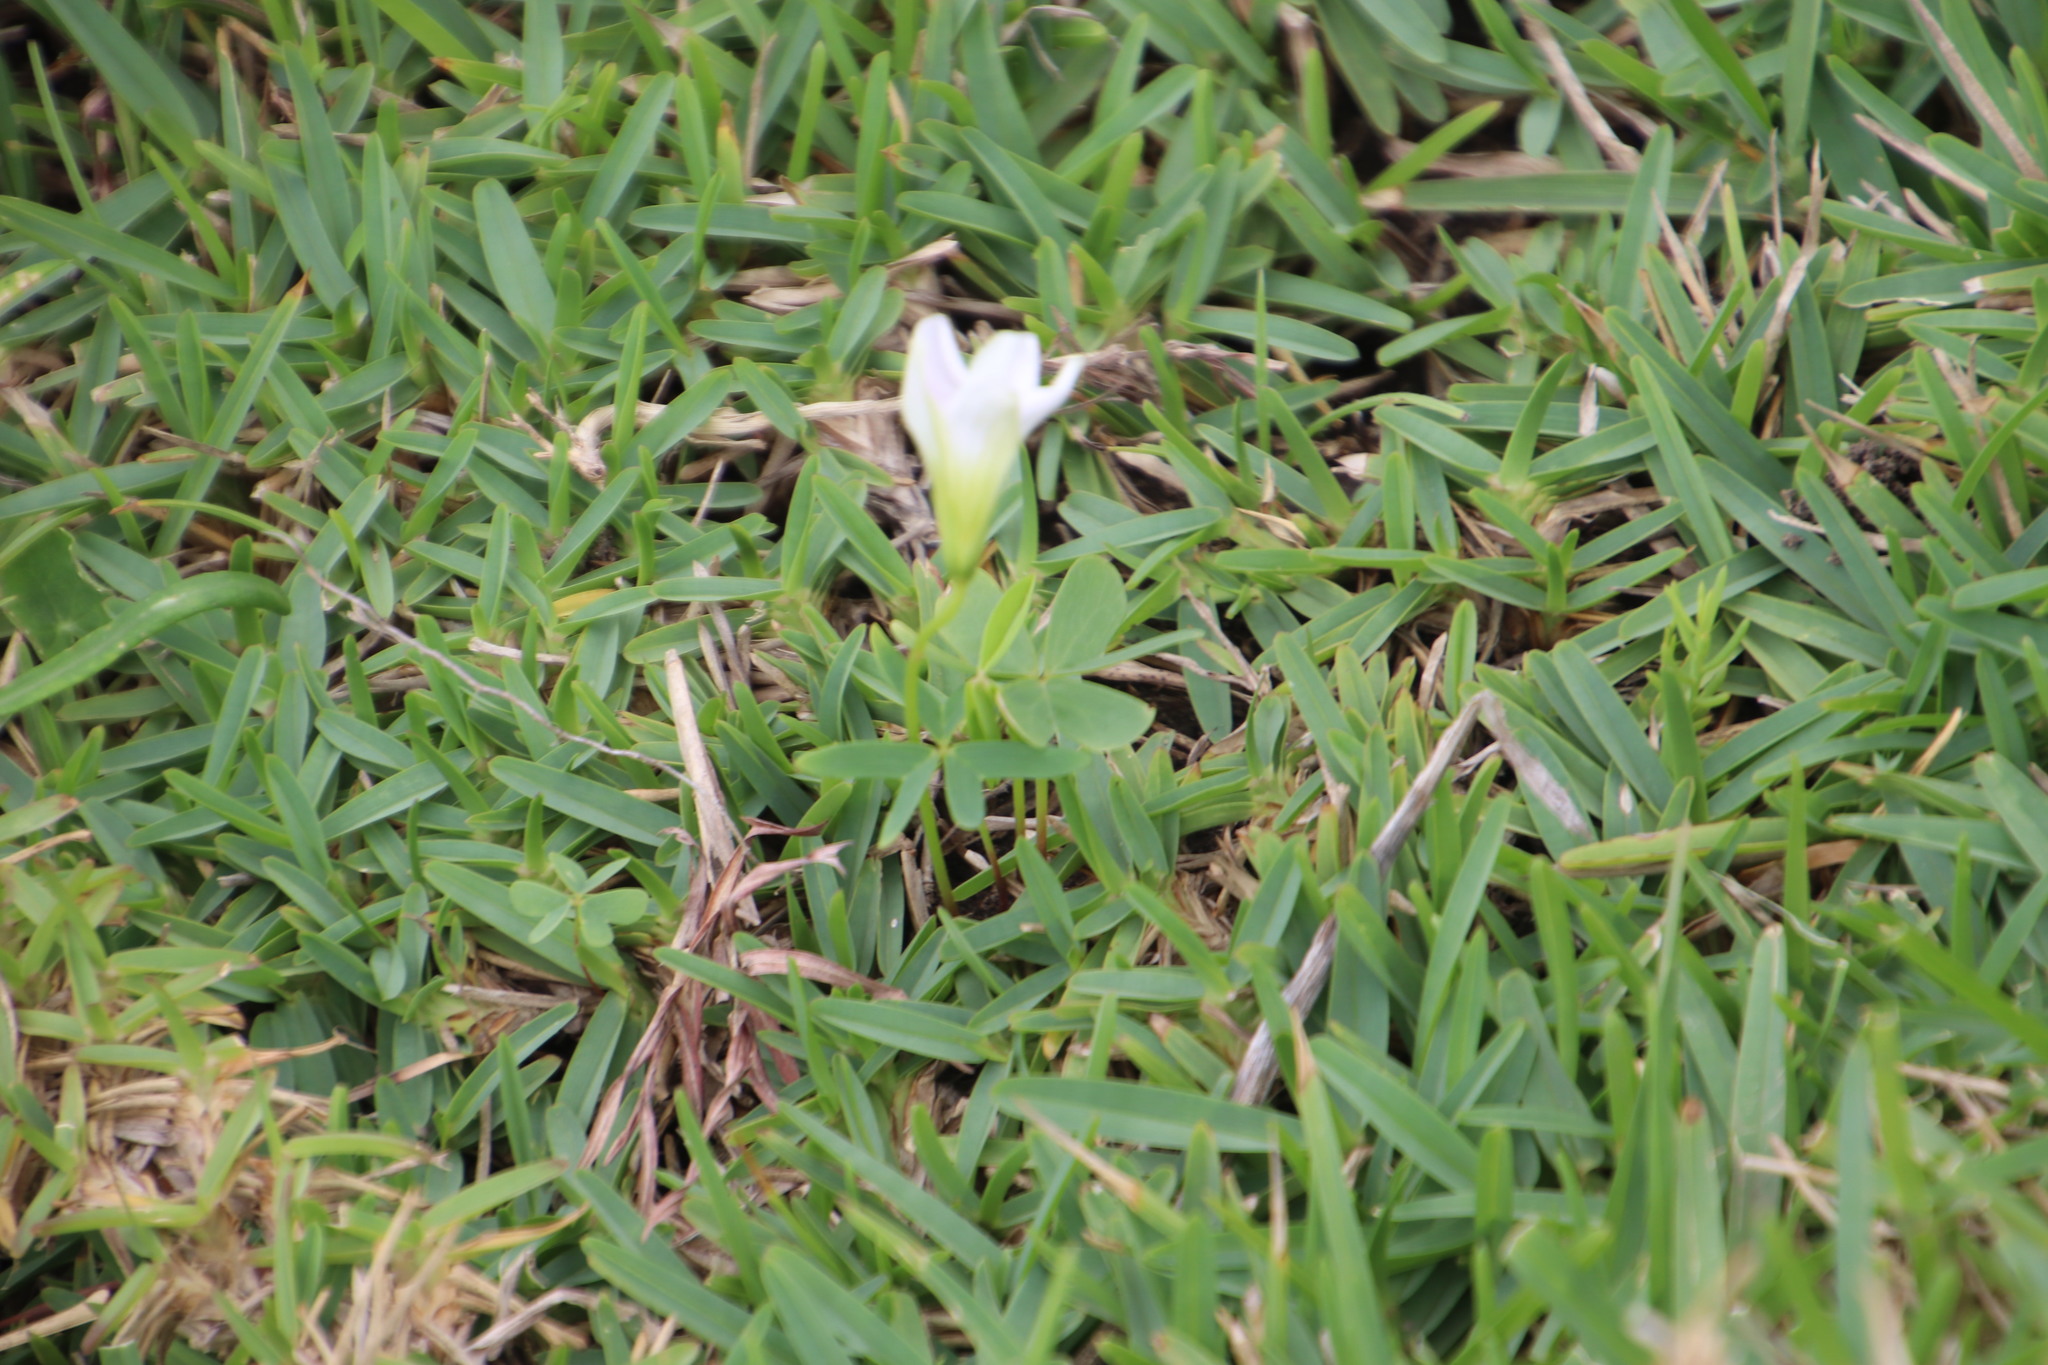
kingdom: Plantae
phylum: Tracheophyta
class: Magnoliopsida
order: Oxalidales
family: Oxalidaceae
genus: Oxalis
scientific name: Oxalis smithiana
